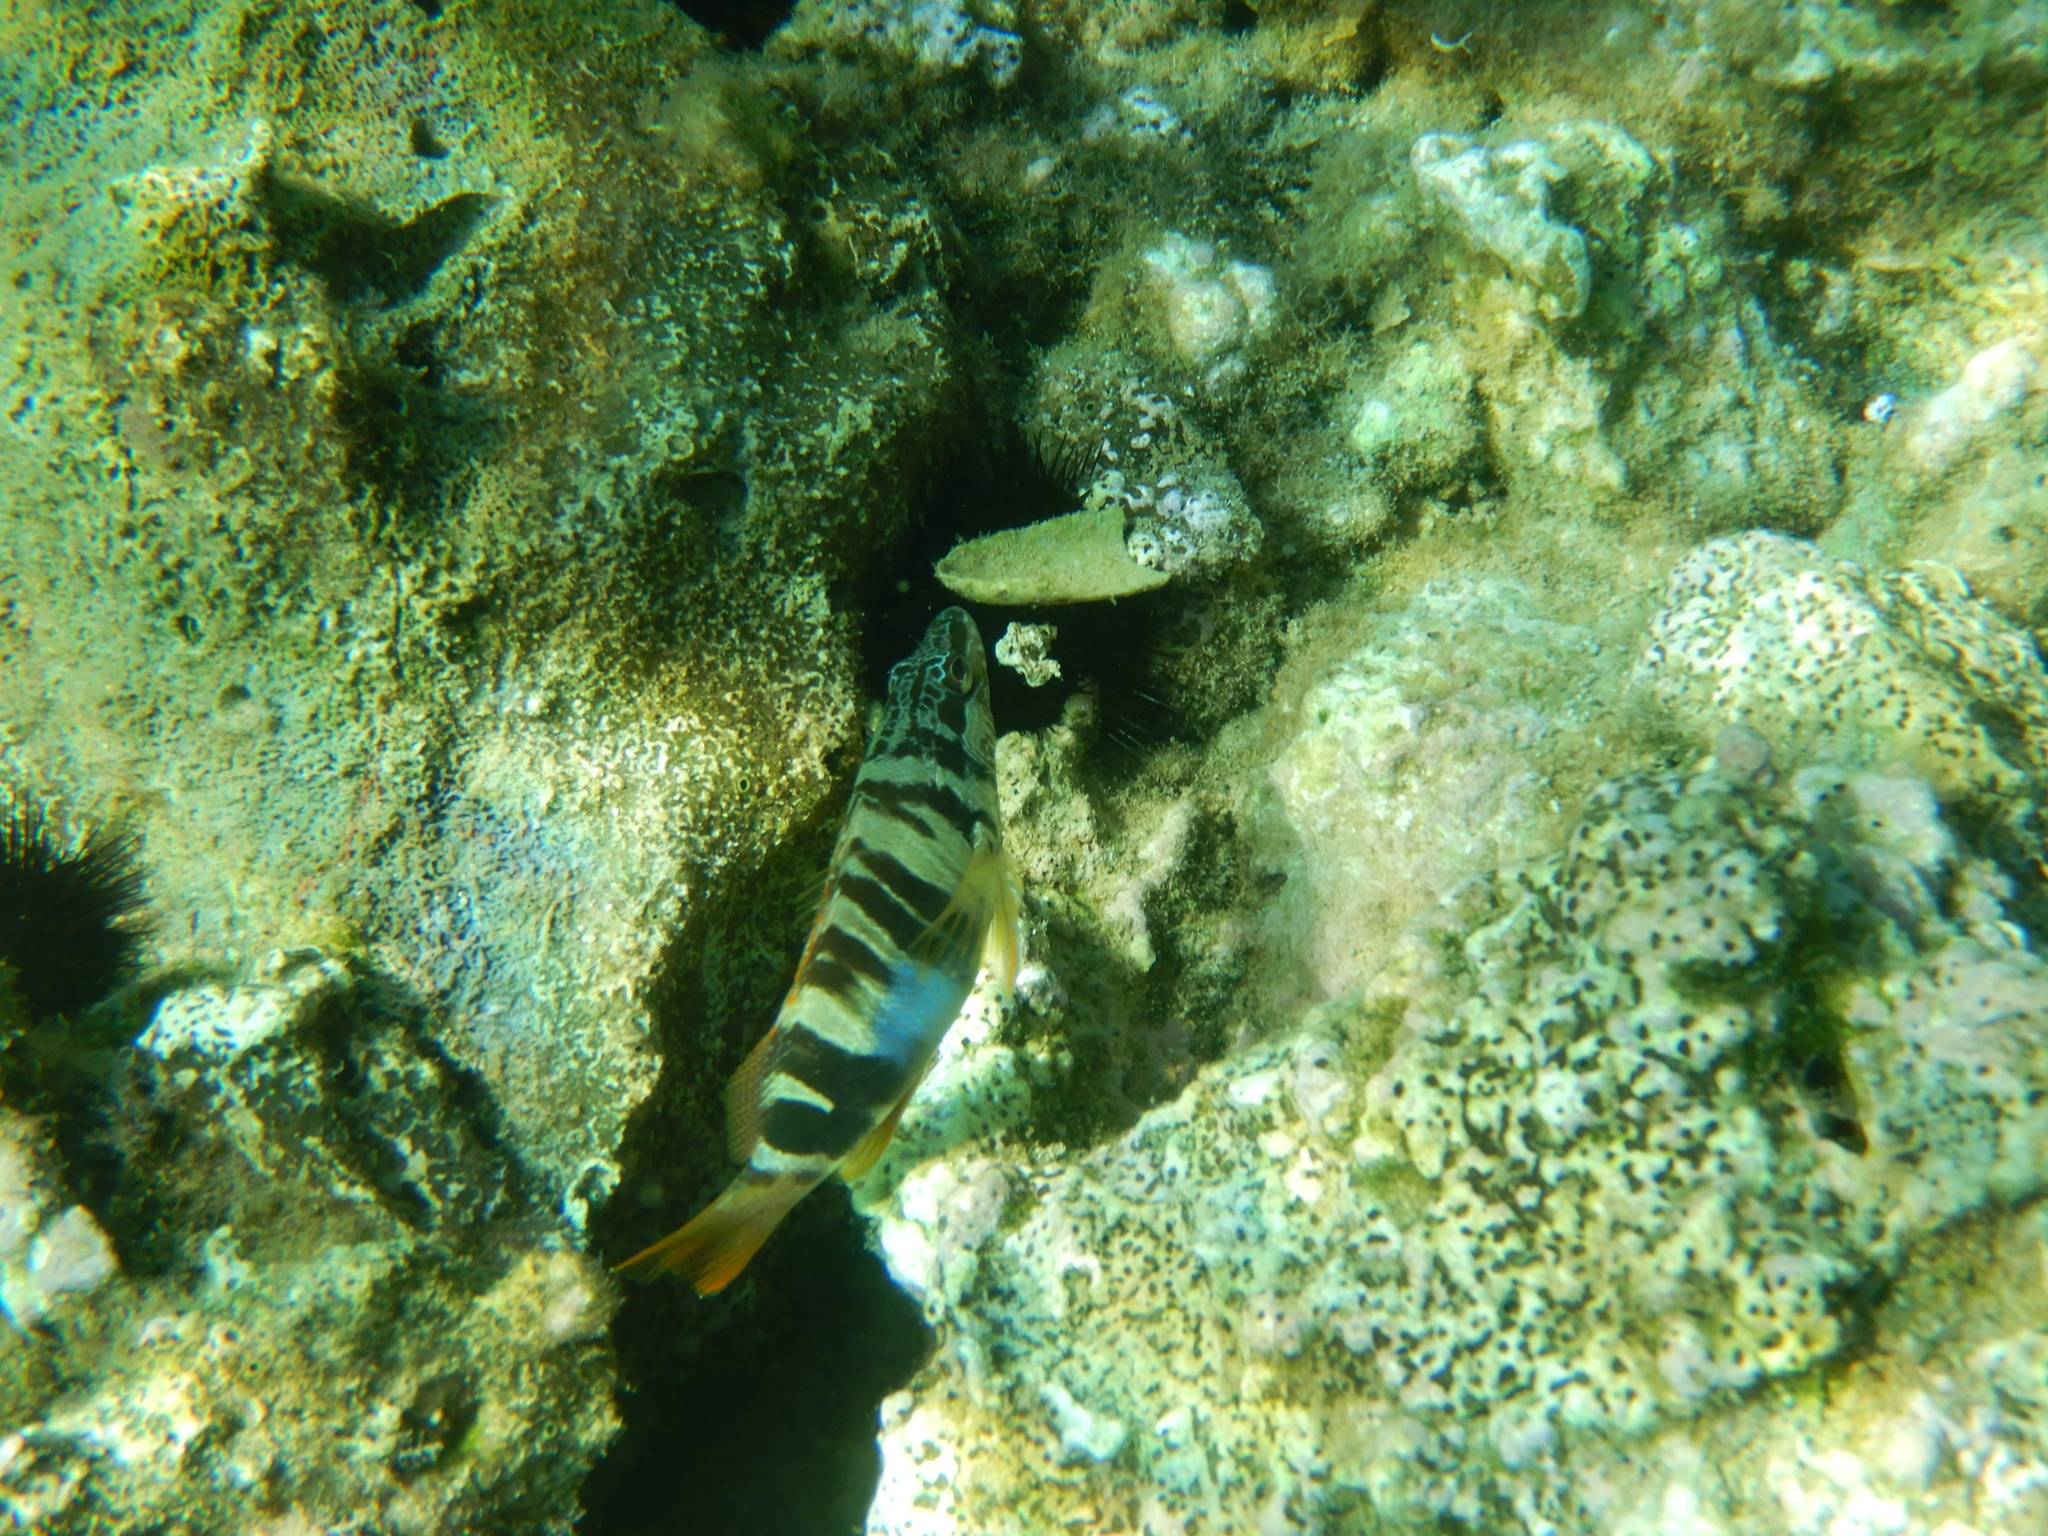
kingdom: Animalia
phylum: Chordata
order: Perciformes
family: Serranidae
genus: Serranus
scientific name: Serranus scriba
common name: Painted comber
